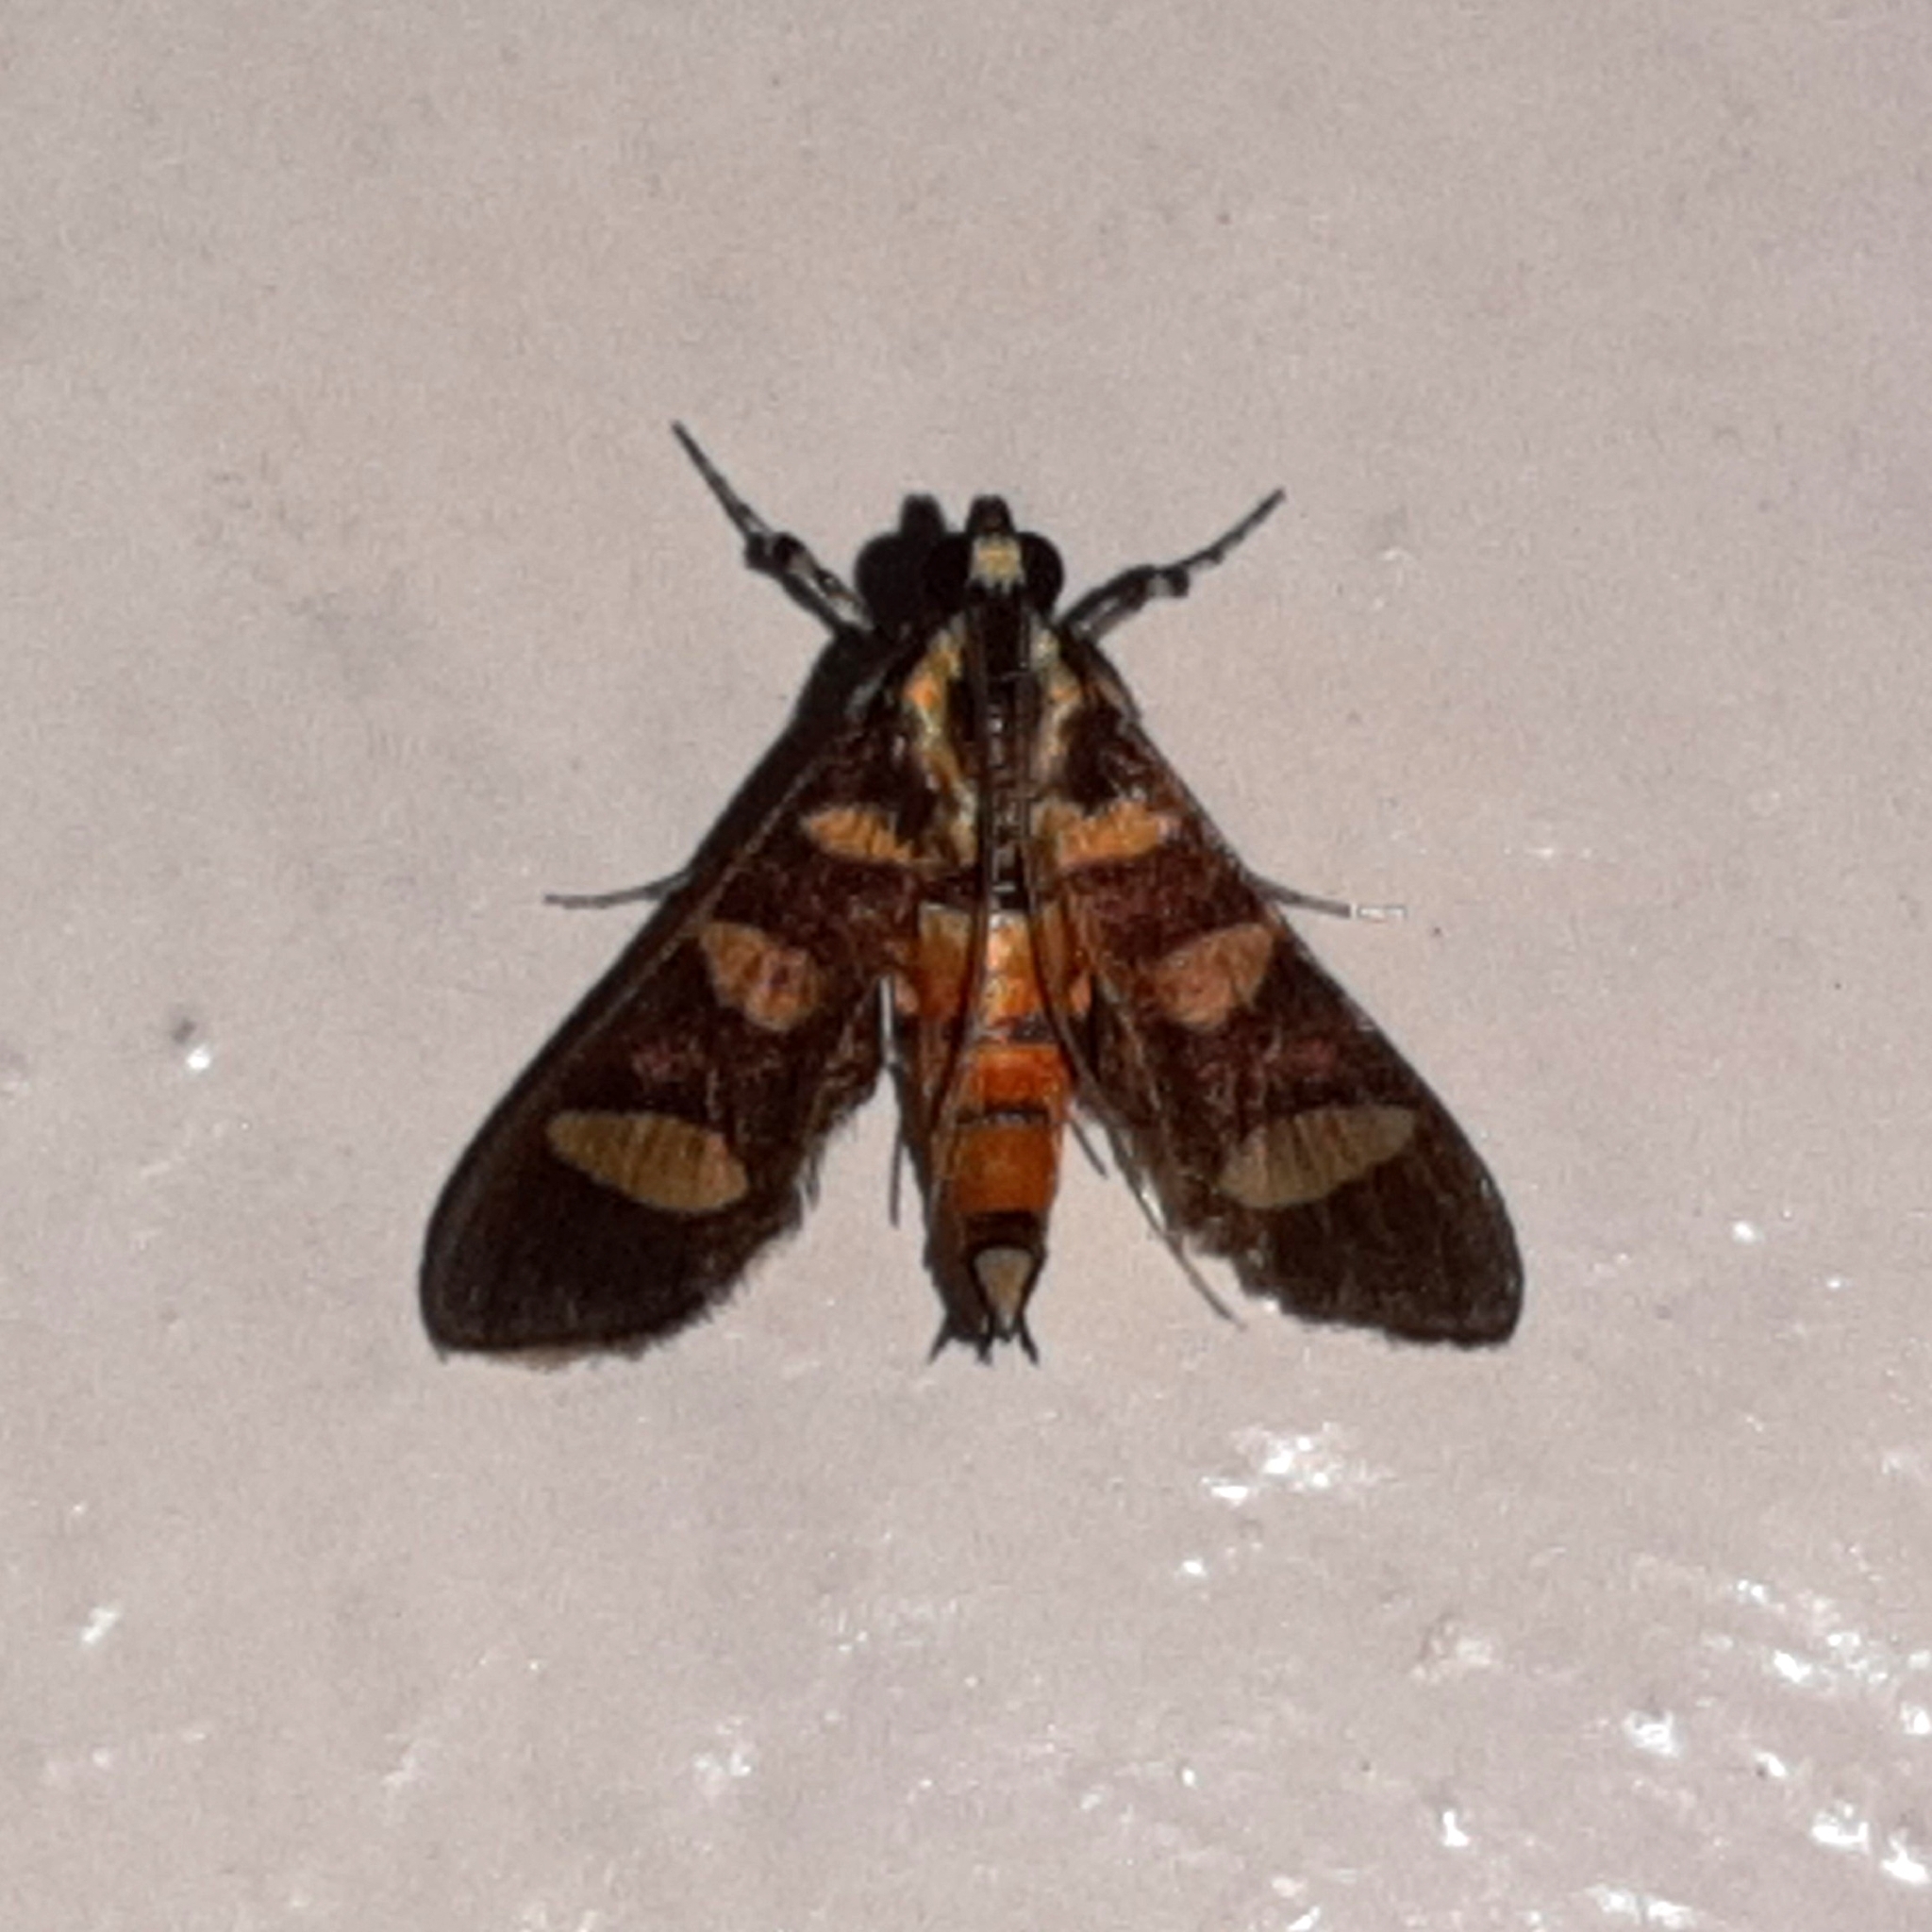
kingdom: Animalia
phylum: Arthropoda
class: Insecta
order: Lepidoptera
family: Crambidae
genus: Syngamia
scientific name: Syngamia florella
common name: Orange-spotted flower moth
